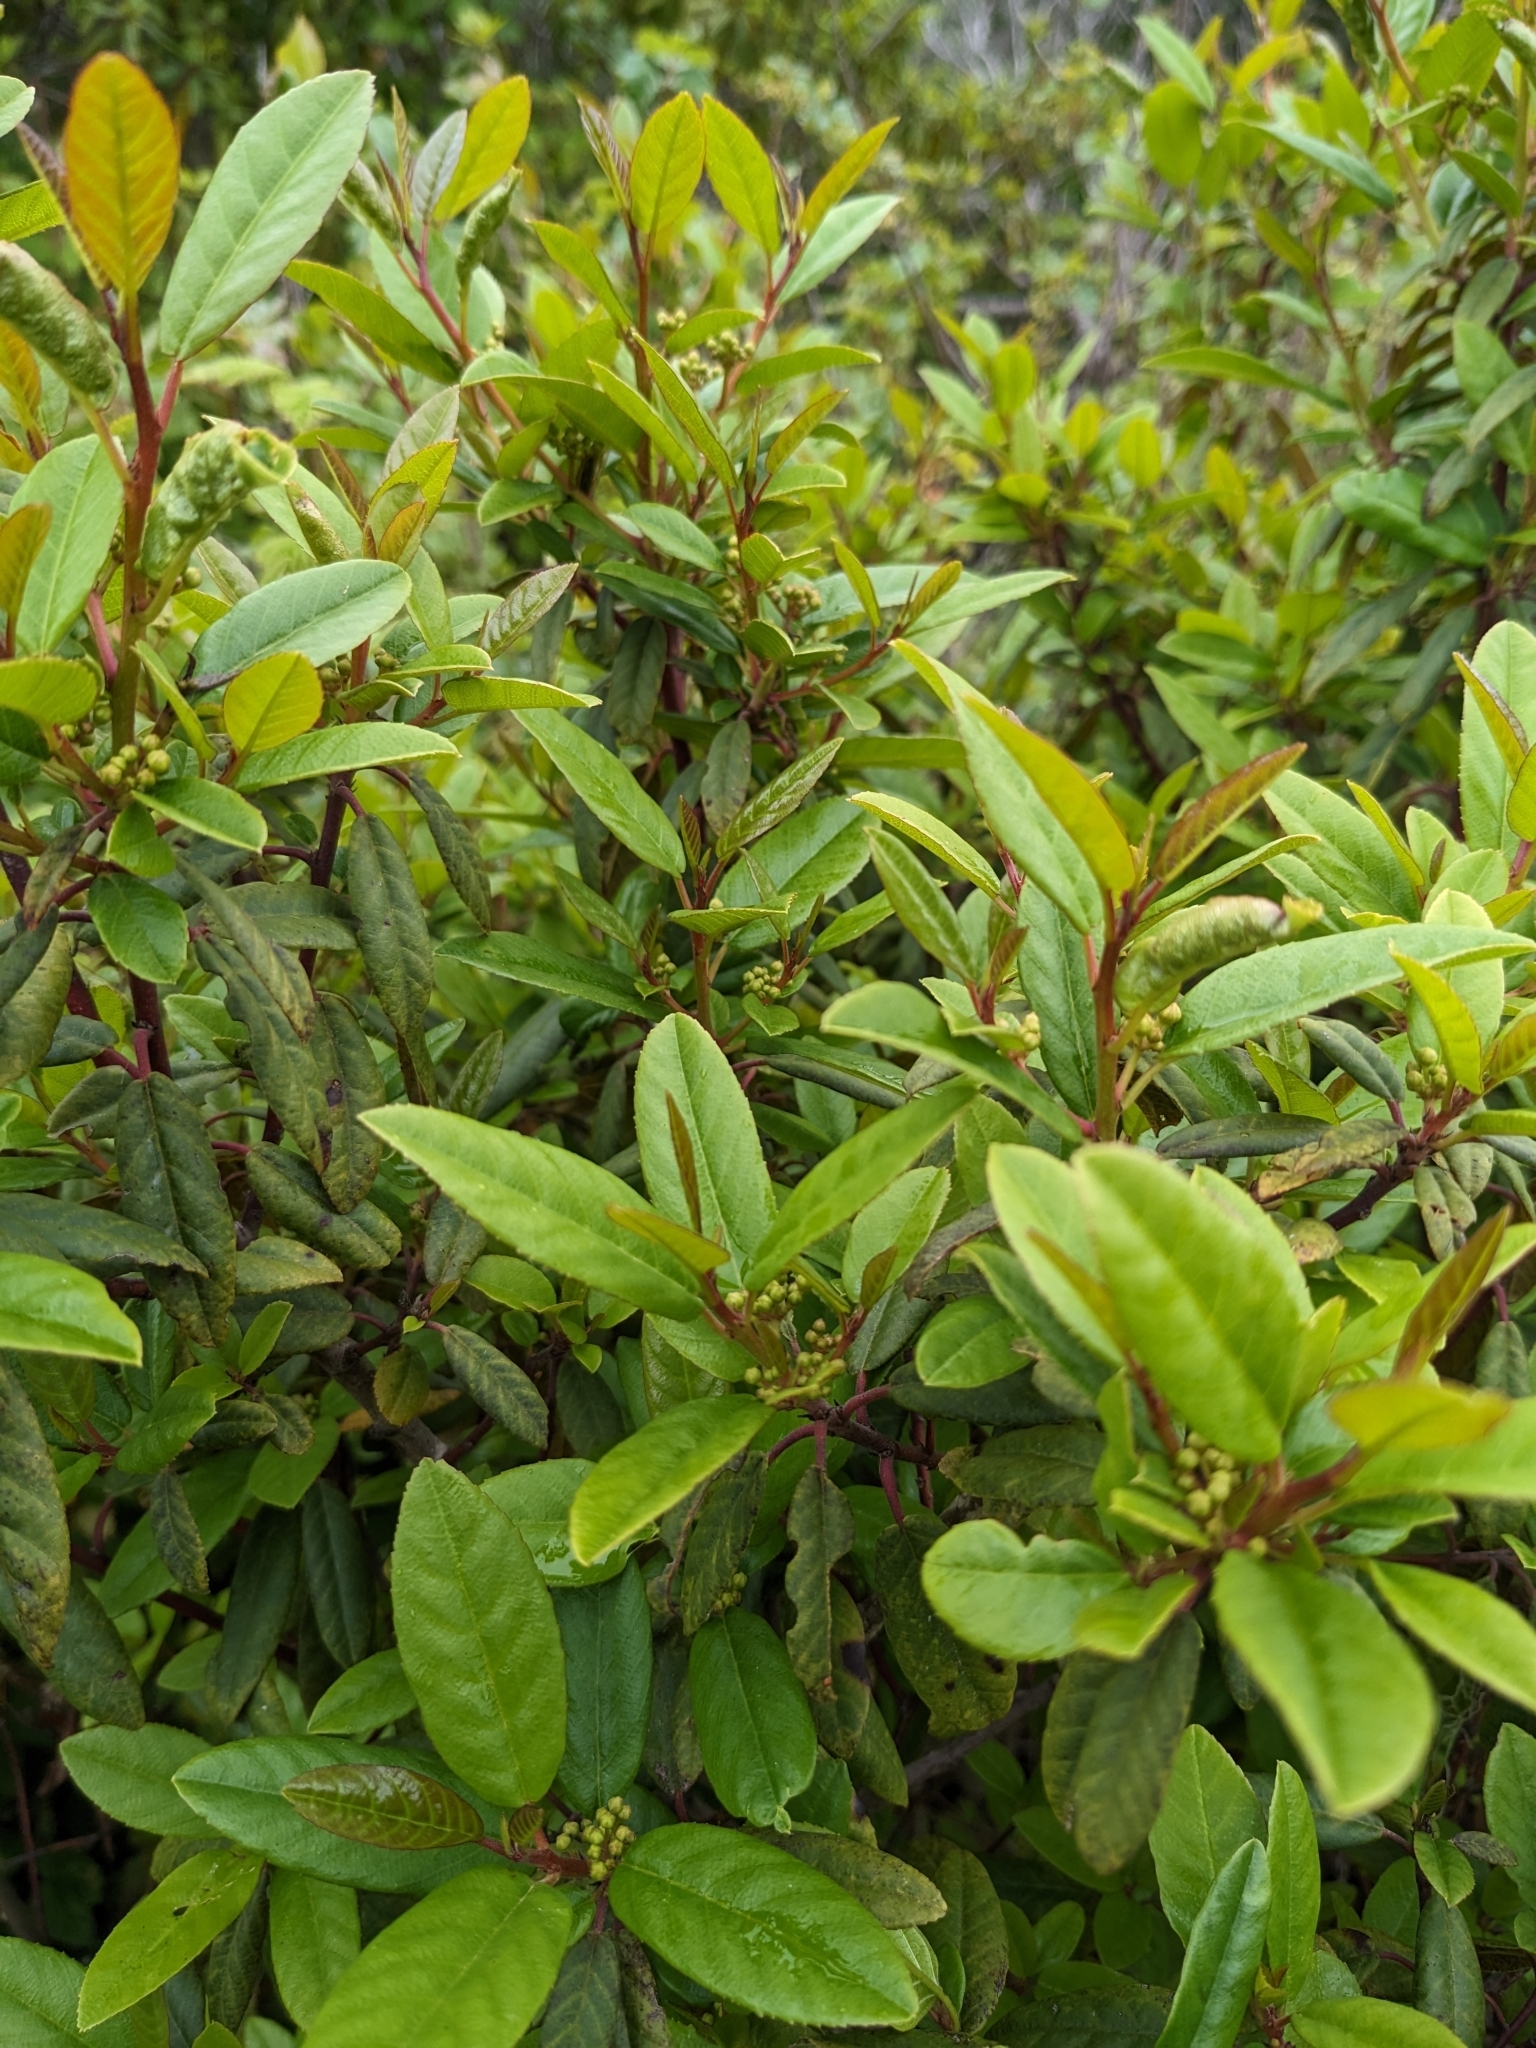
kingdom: Plantae
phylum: Tracheophyta
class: Magnoliopsida
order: Rosales
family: Rhamnaceae
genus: Frangula
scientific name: Frangula californica
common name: California buckthorn
